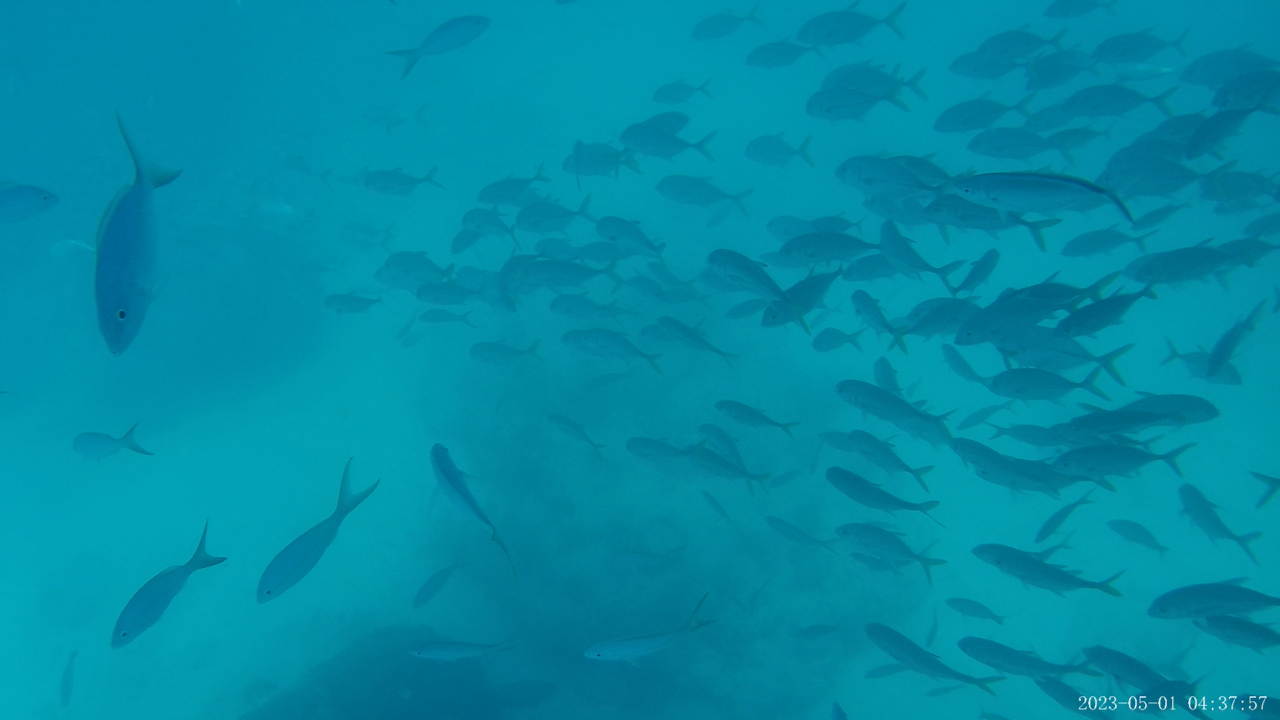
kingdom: Animalia
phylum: Chordata
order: Perciformes
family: Carangidae
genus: Caranx
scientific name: Caranx latus
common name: Horse eye jack
